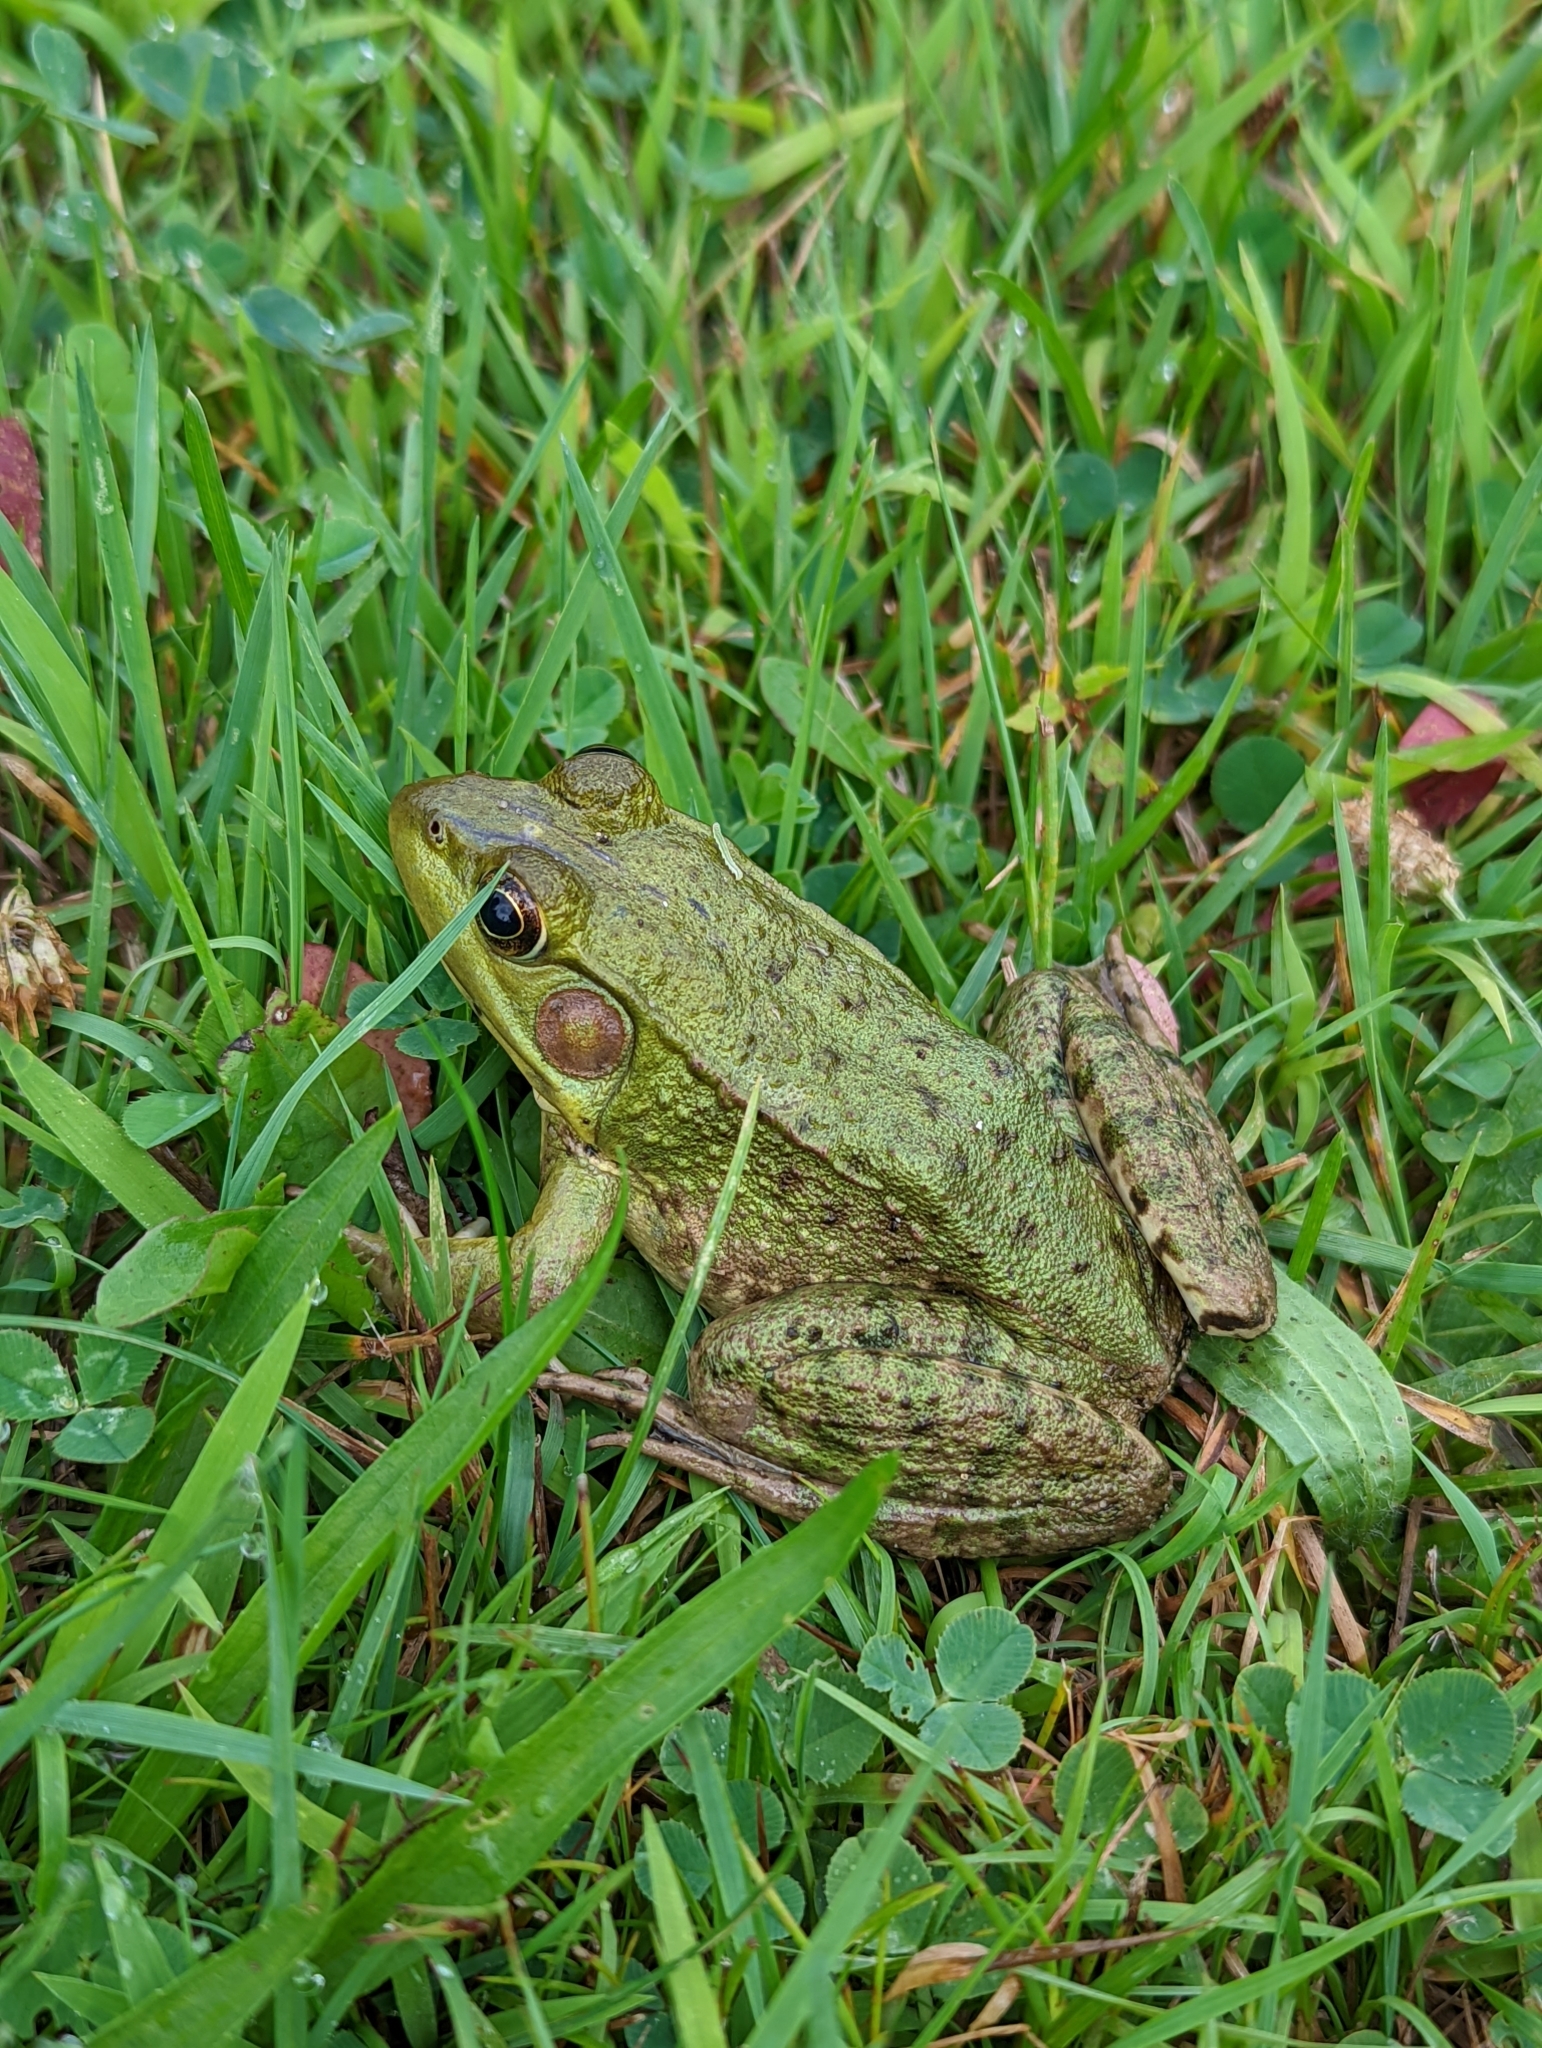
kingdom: Animalia
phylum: Chordata
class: Amphibia
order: Anura
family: Ranidae
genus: Lithobates
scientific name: Lithobates clamitans
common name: Green frog
